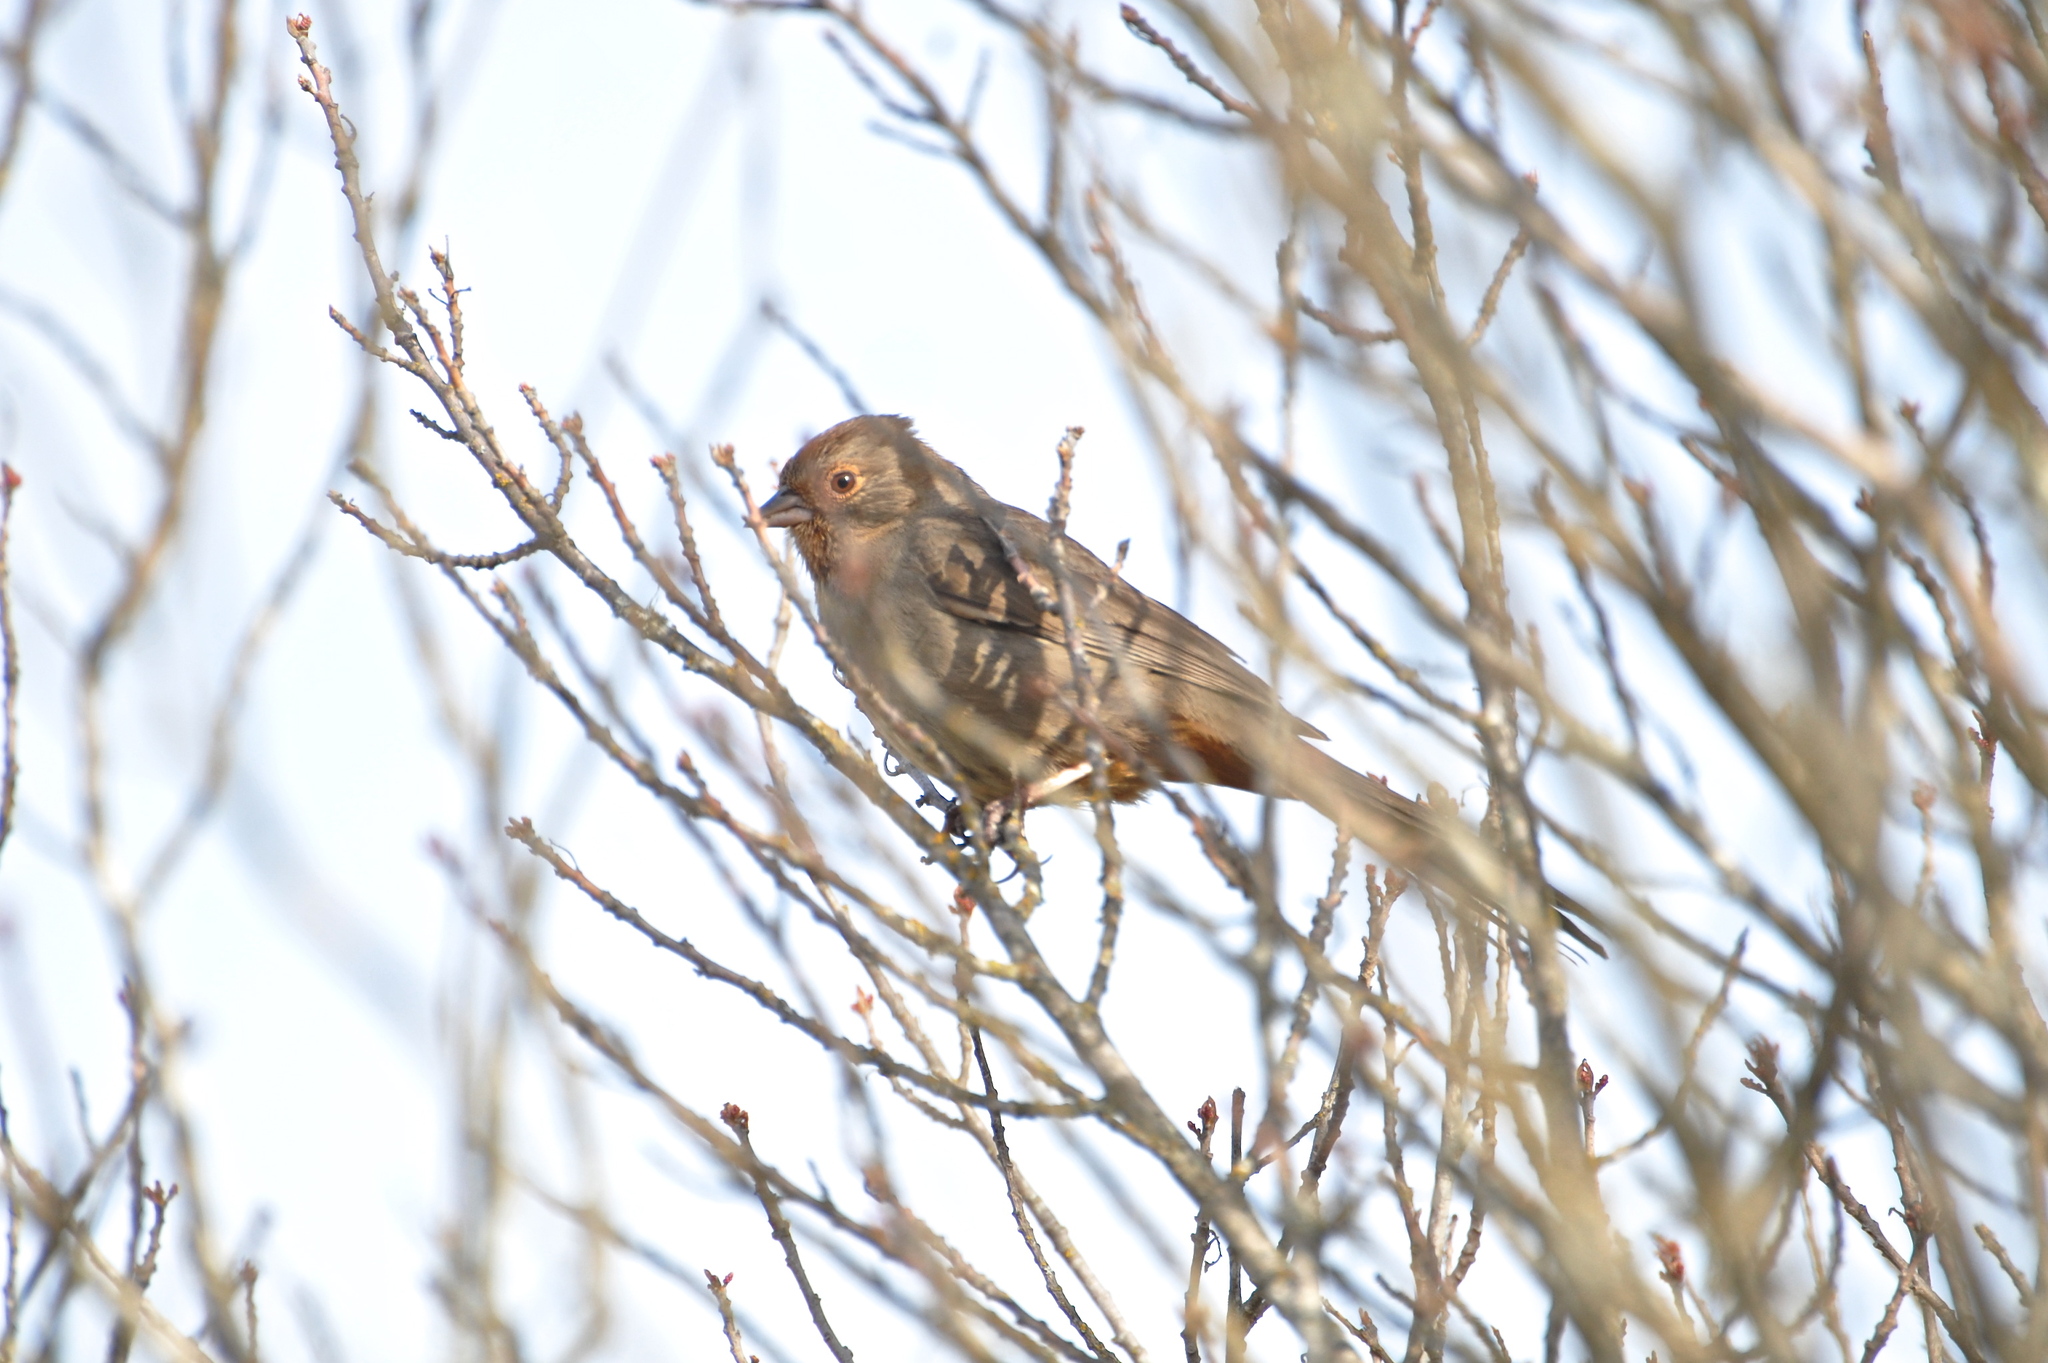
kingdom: Animalia
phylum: Chordata
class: Aves
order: Passeriformes
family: Passerellidae
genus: Melozone
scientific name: Melozone crissalis
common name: California towhee
